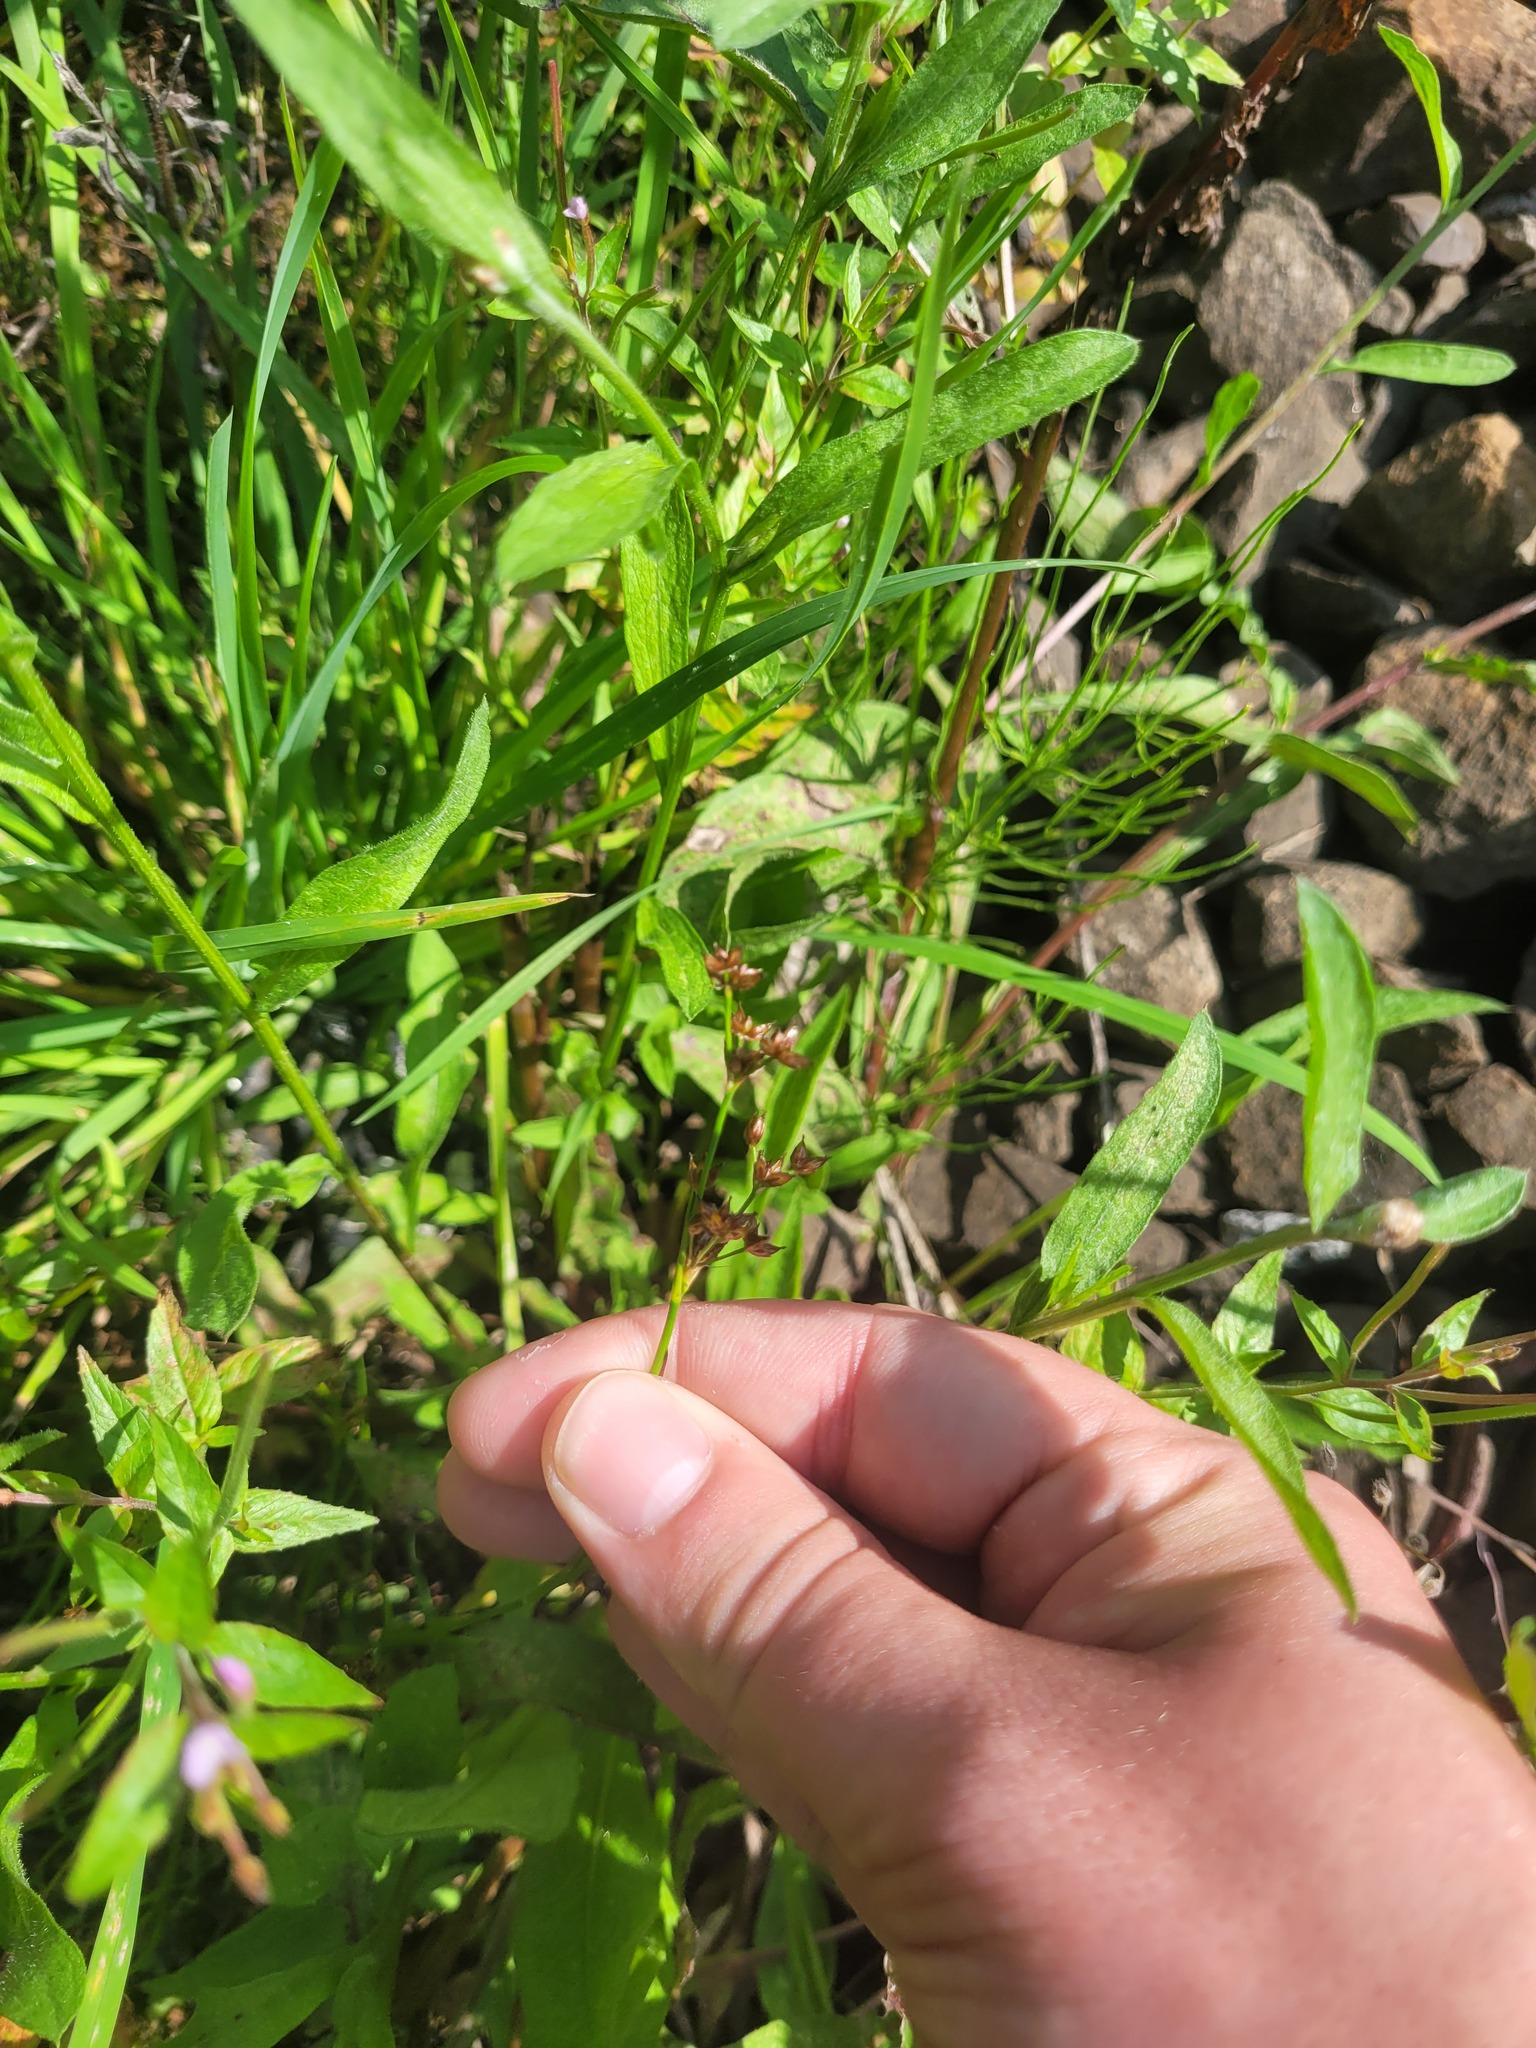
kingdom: Plantae
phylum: Tracheophyta
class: Liliopsida
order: Poales
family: Juncaceae
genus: Juncus
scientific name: Juncus articulatus
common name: Jointed rush
